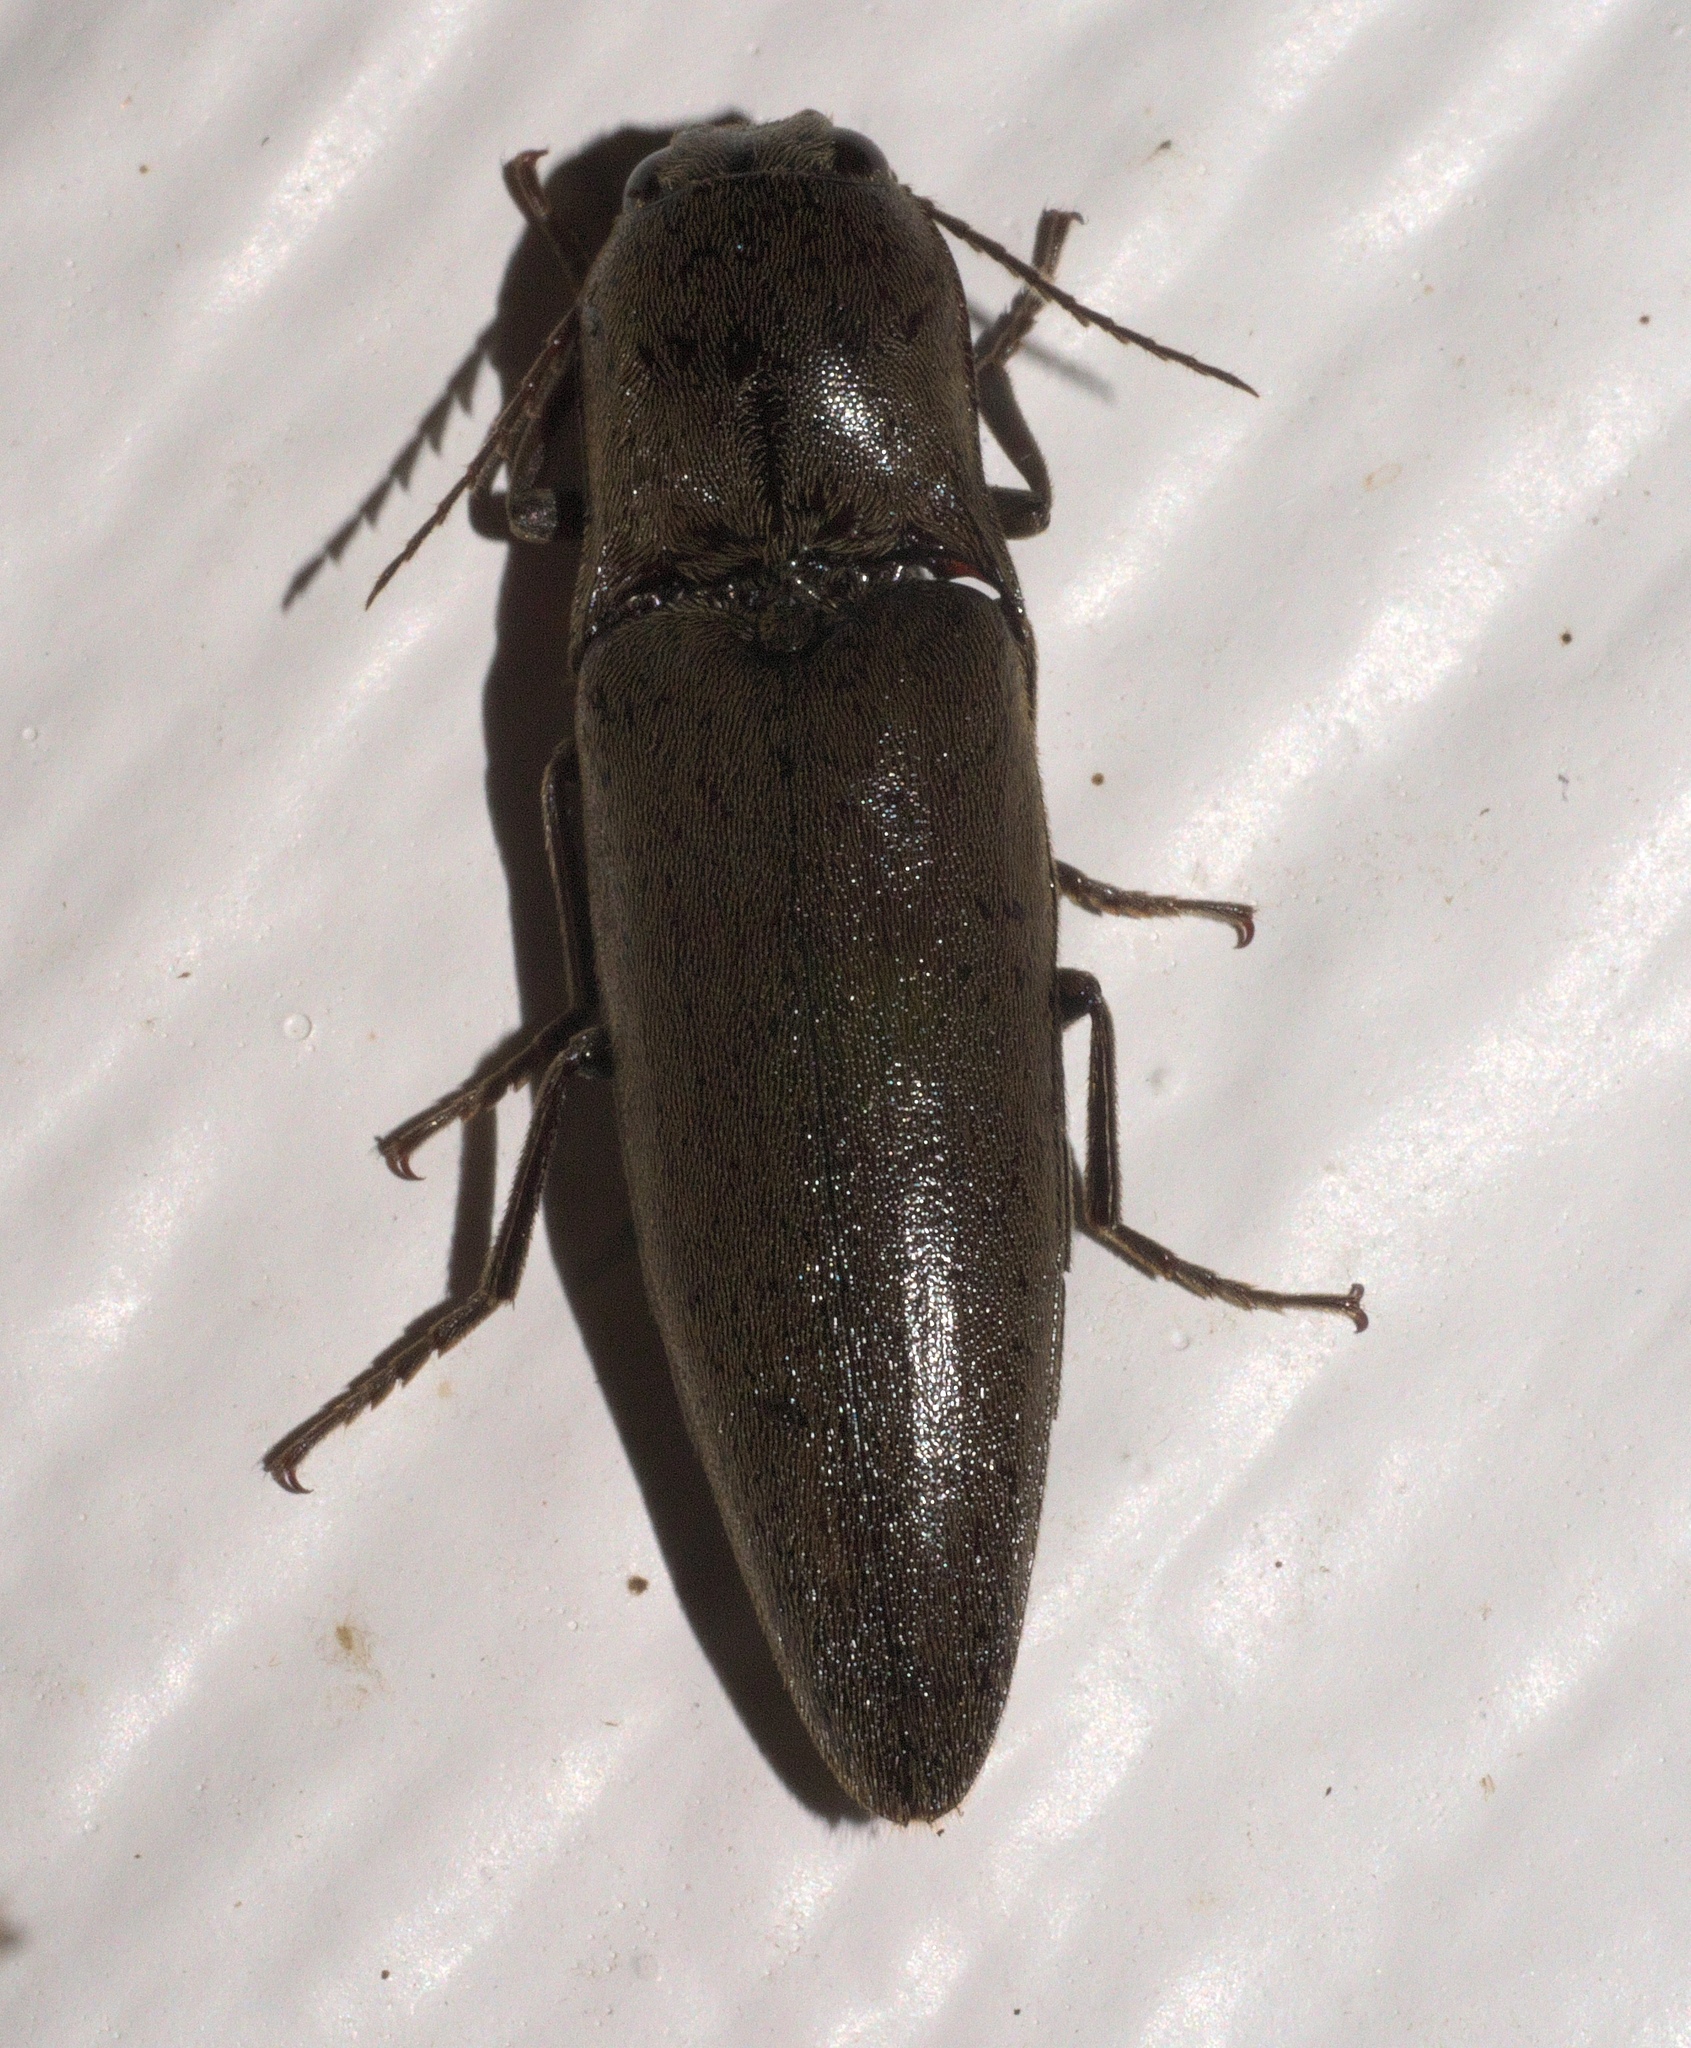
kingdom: Animalia
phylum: Arthropoda
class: Insecta
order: Coleoptera
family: Elateridae
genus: Orthostethus
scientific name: Orthostethus infuscatus
